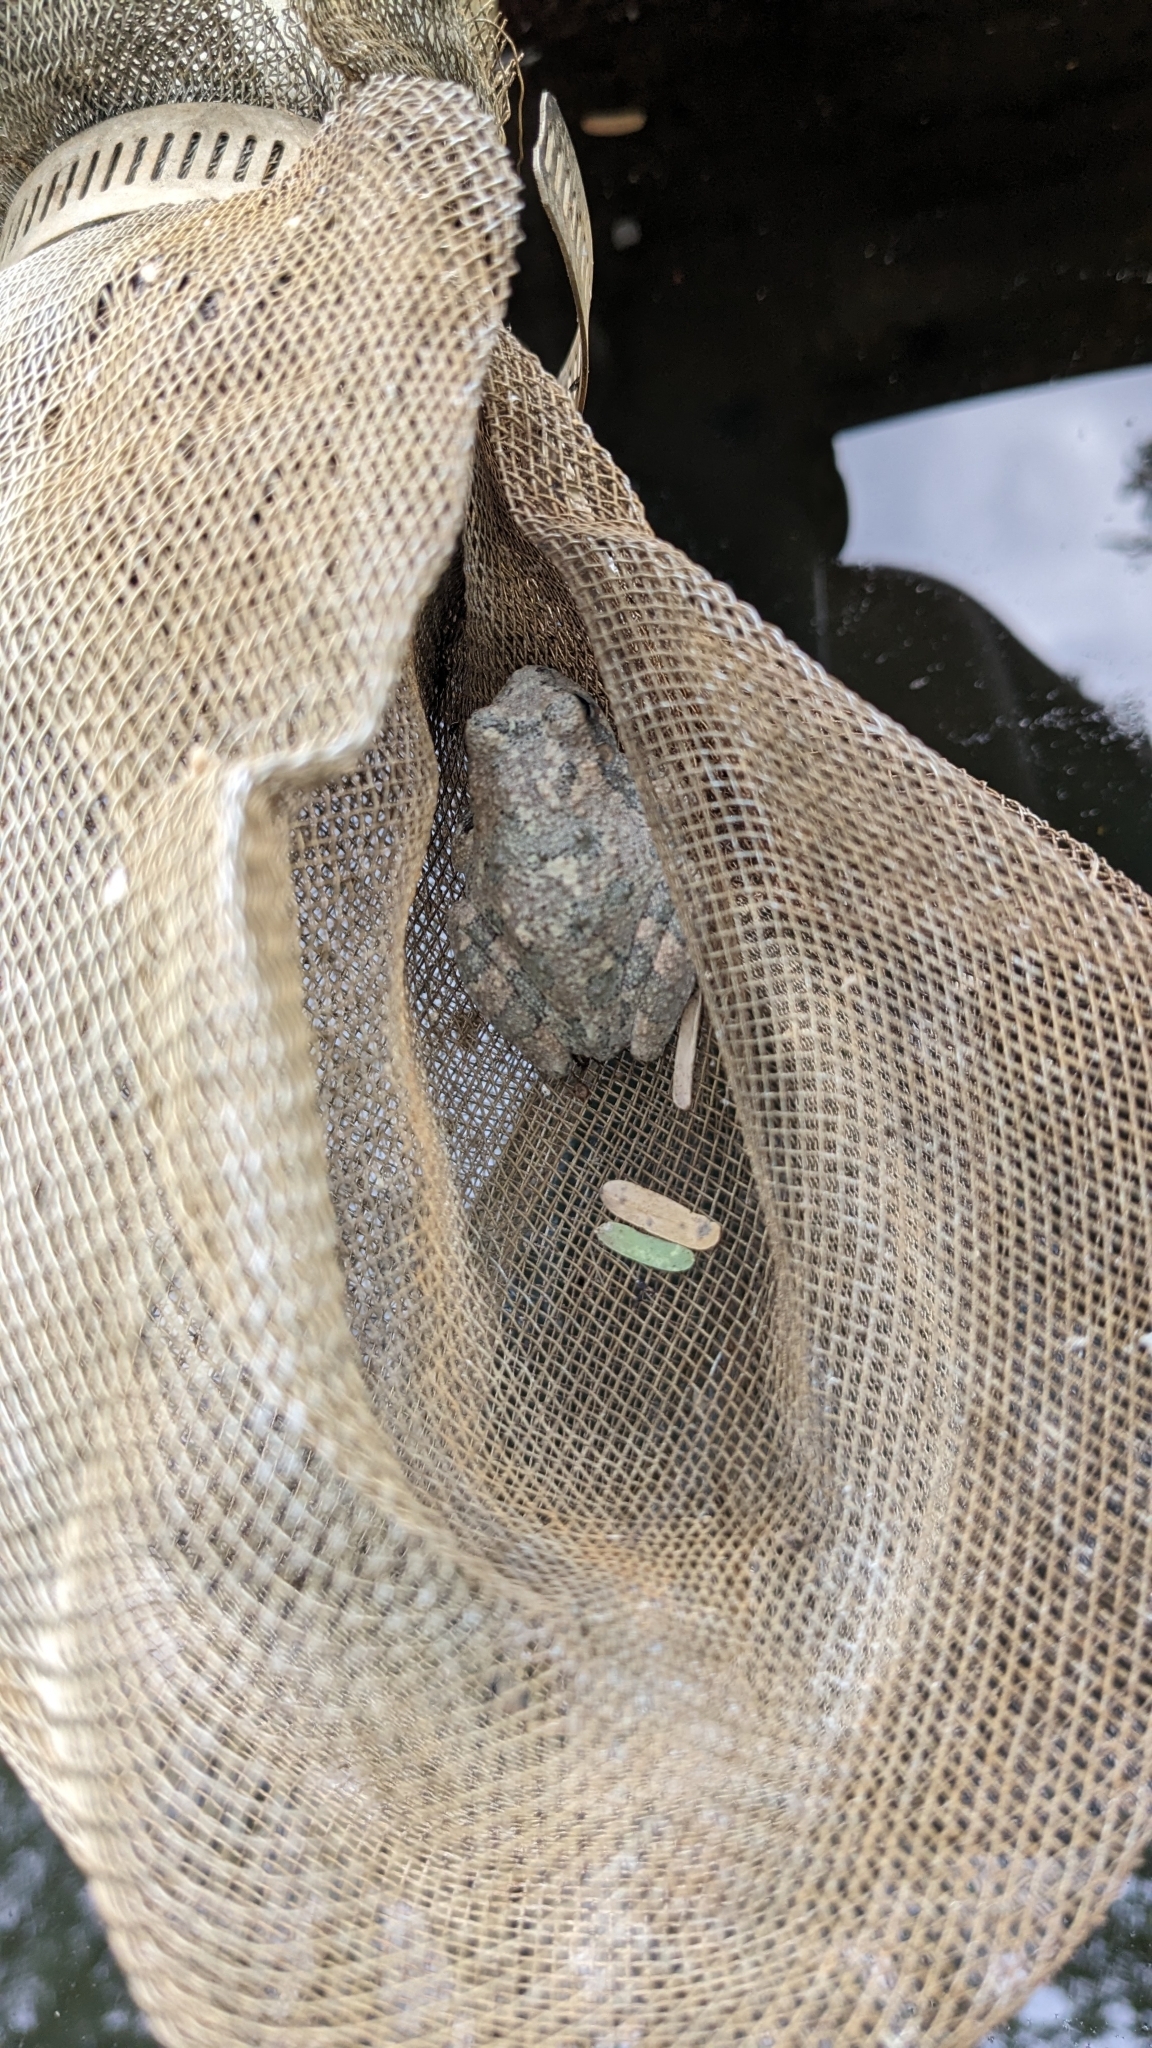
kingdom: Animalia
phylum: Chordata
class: Amphibia
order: Anura
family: Hylidae
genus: Dryophytes
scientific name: Dryophytes arenicolor
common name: Canyon treefrog
